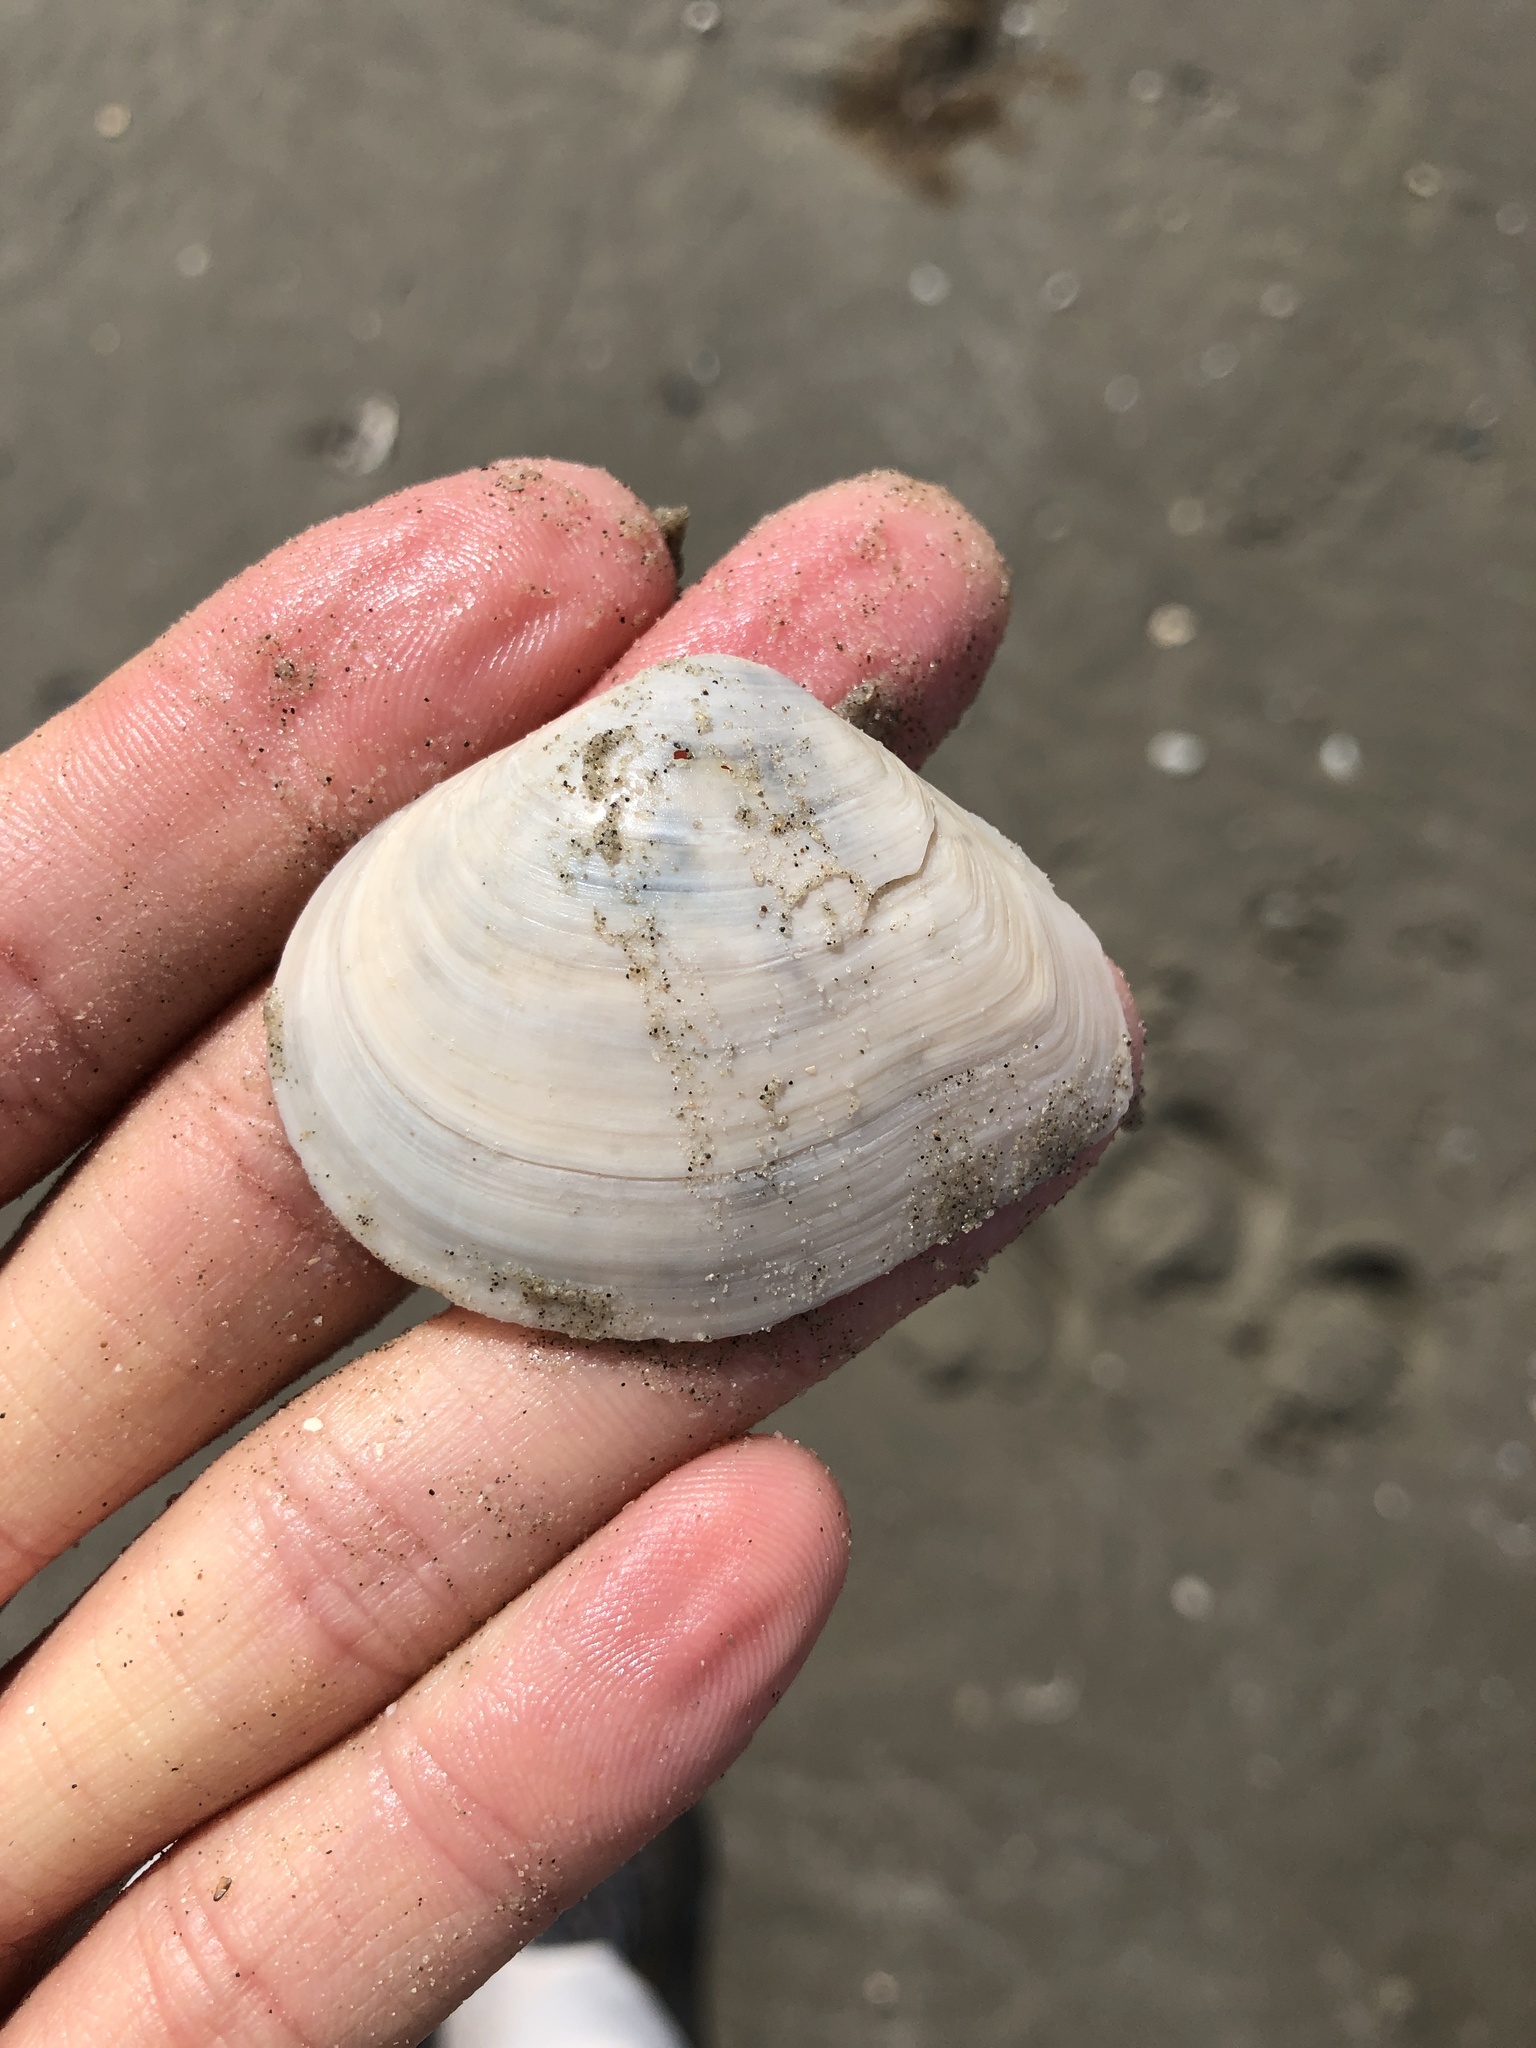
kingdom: Animalia
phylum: Mollusca
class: Bivalvia
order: Cardiida
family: Tellinidae
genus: Austromacoma
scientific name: Austromacoma constricta
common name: Constricted macoma
